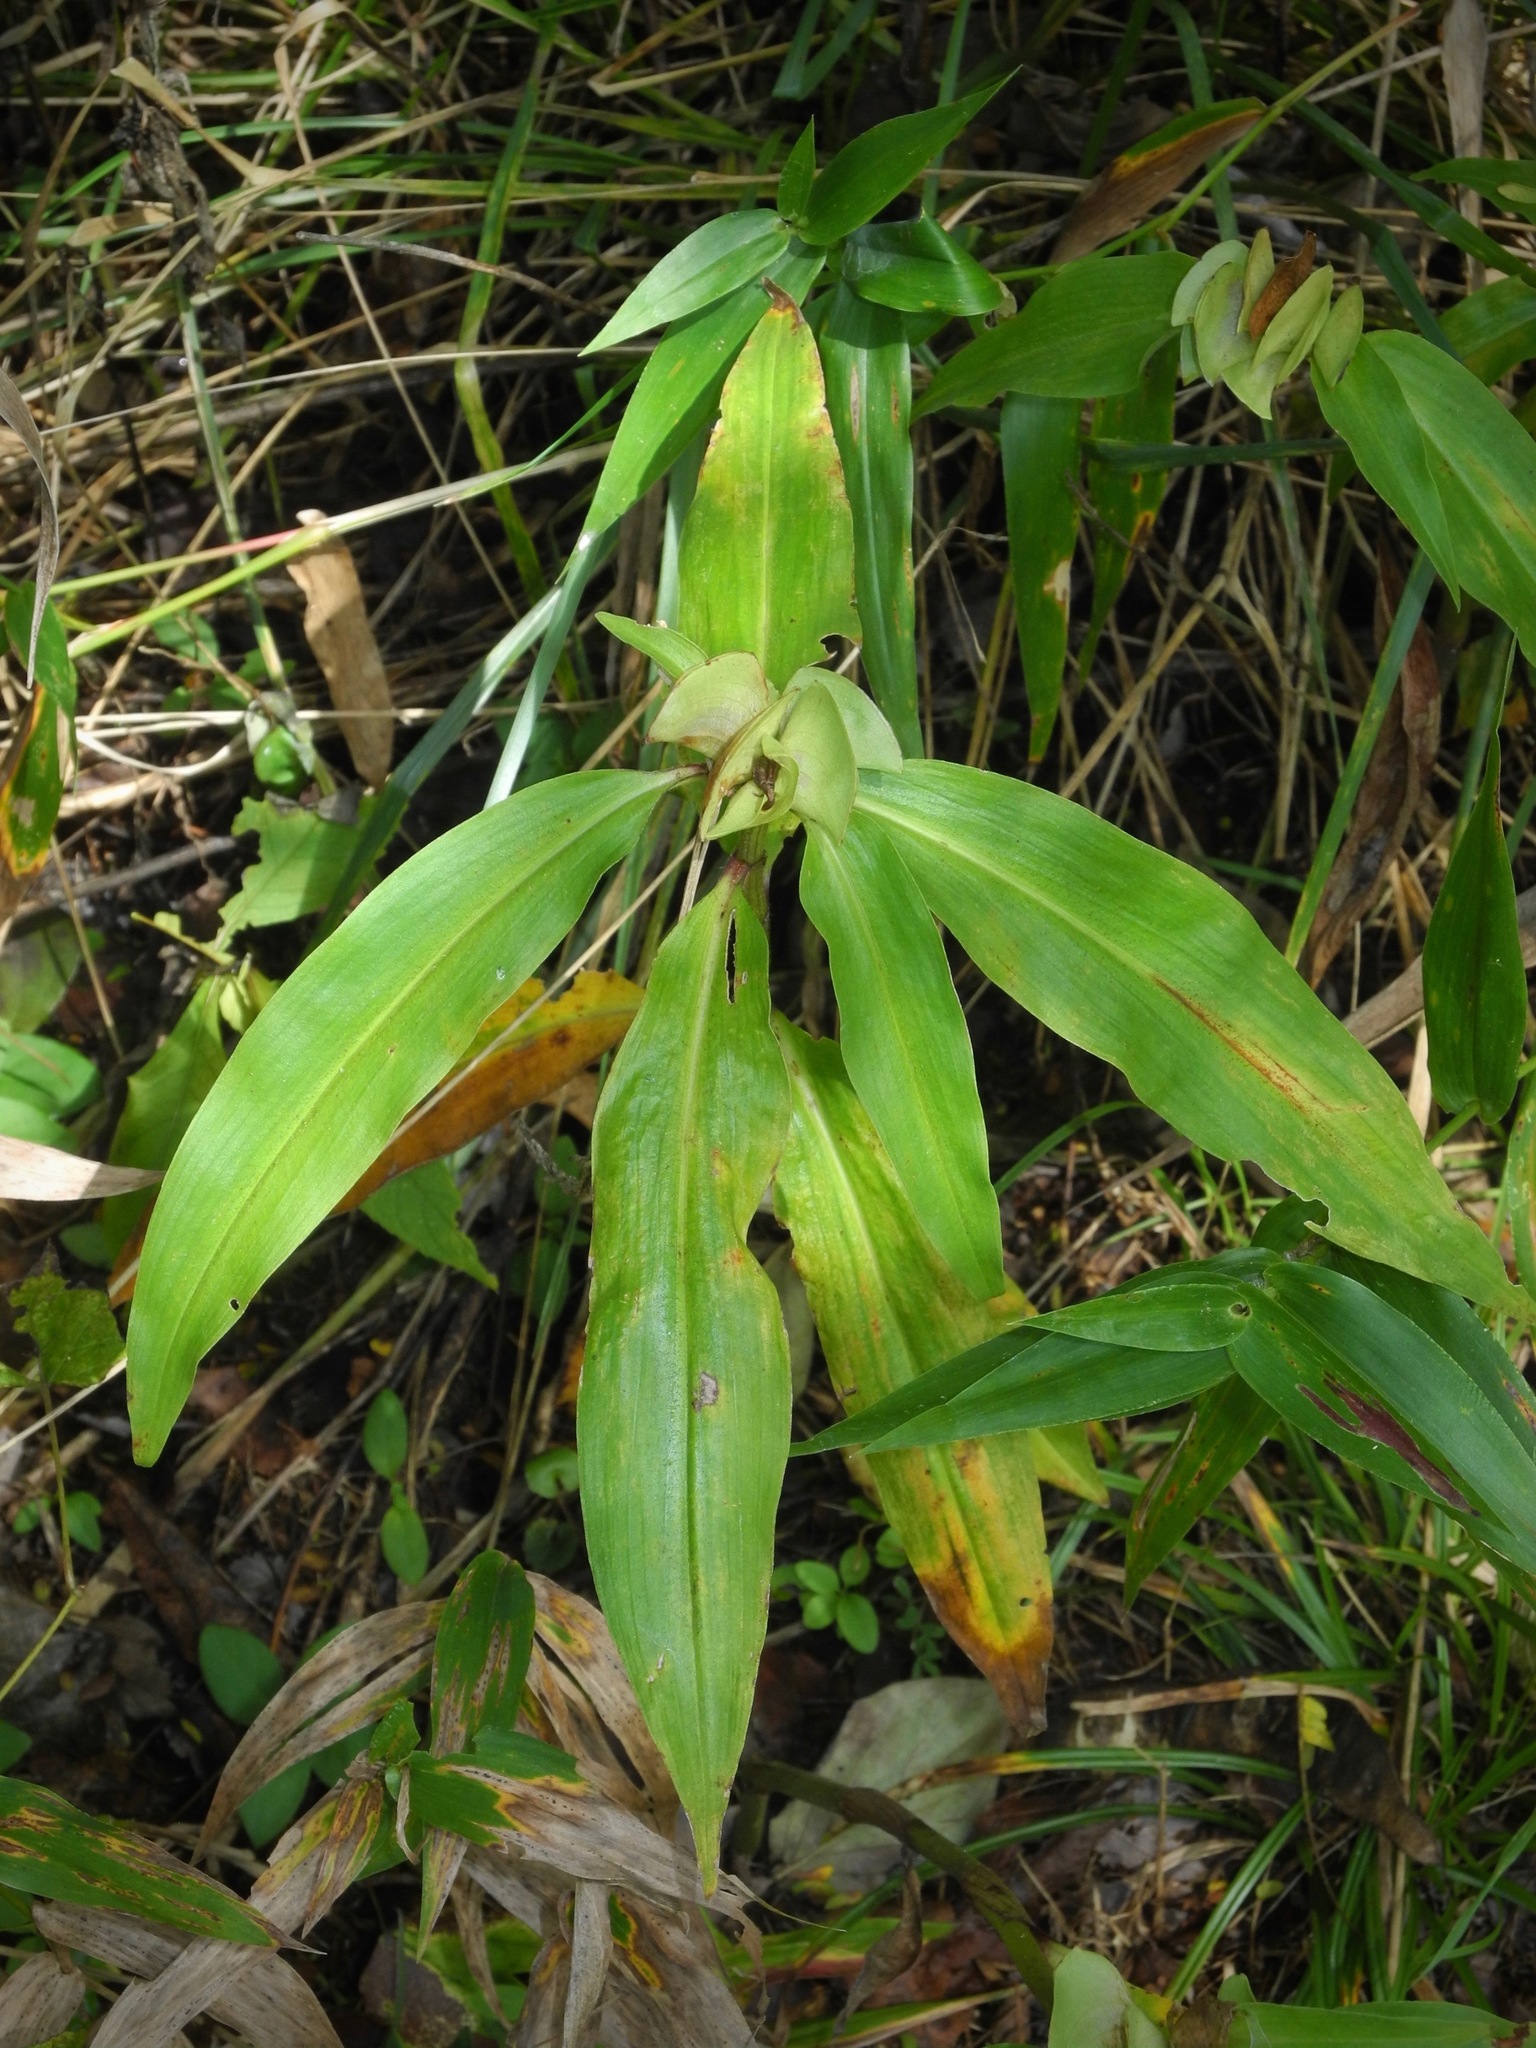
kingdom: Plantae
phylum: Tracheophyta
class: Liliopsida
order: Commelinales
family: Commelinaceae
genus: Commelina
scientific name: Commelina virginica
